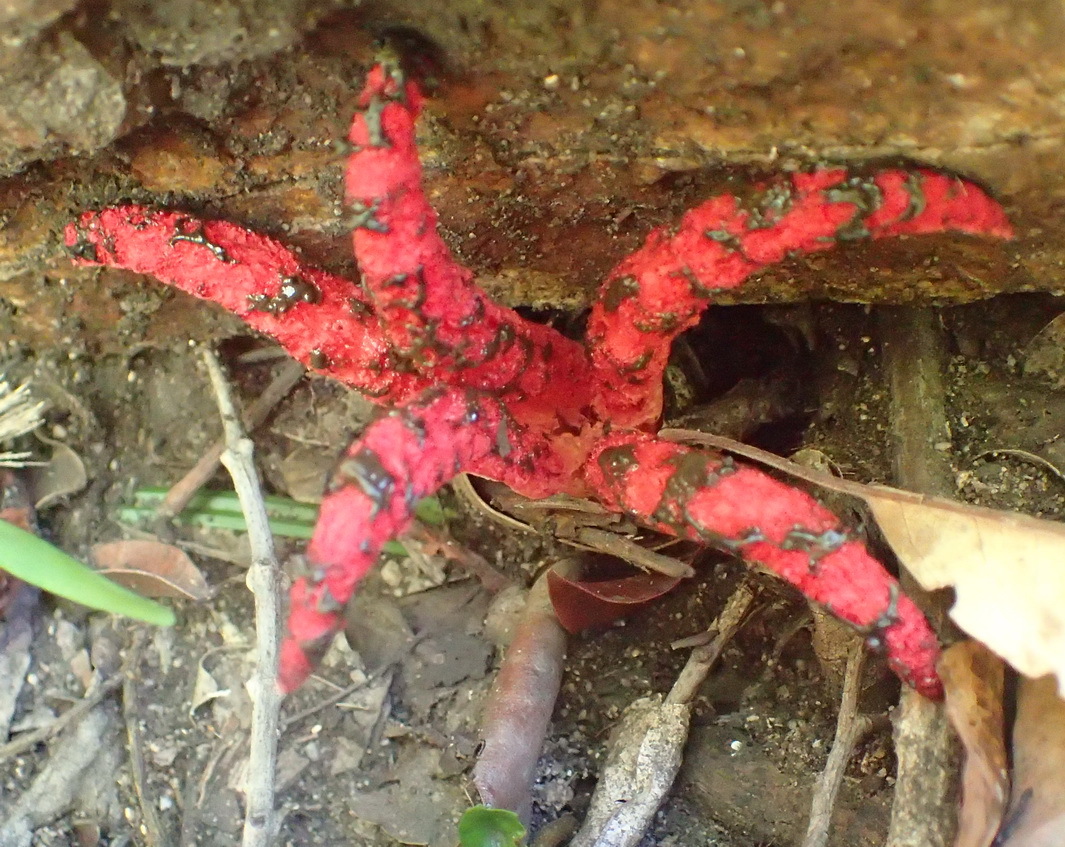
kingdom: Fungi
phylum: Basidiomycota
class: Agaricomycetes
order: Phallales
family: Phallaceae
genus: Clathrus
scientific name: Clathrus archeri
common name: Devil's fingers
